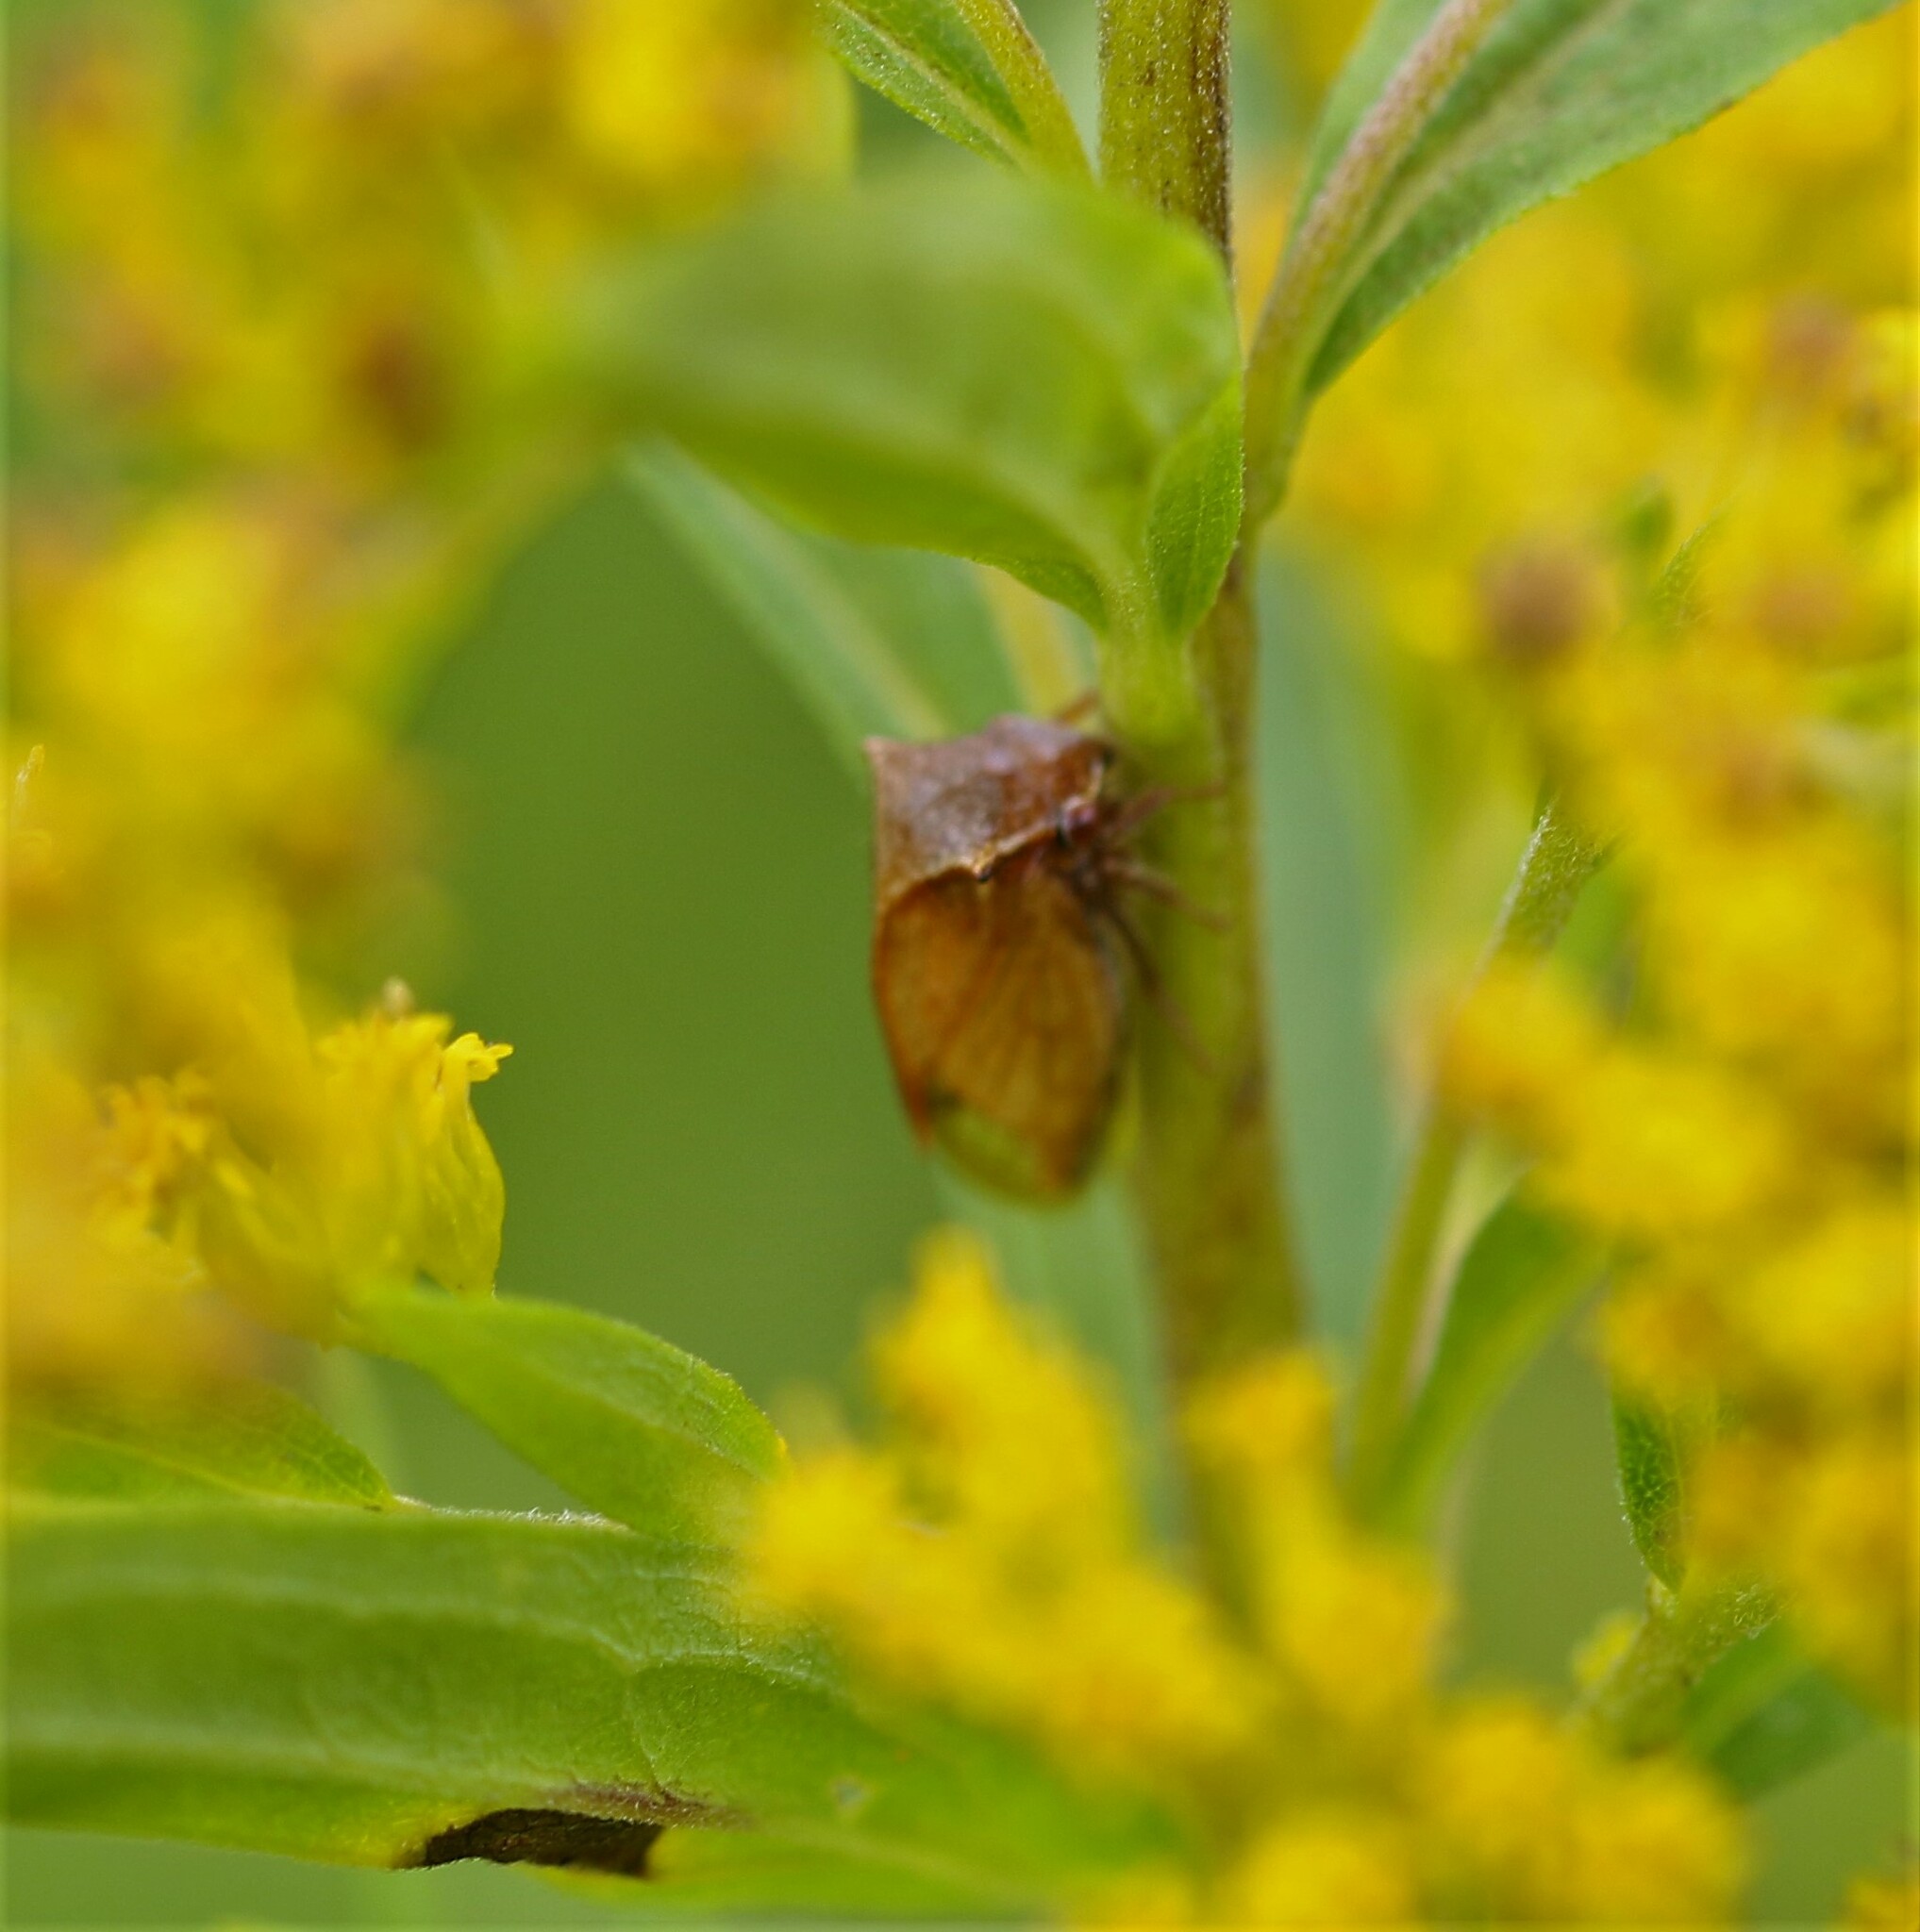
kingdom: Animalia
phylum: Arthropoda
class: Insecta
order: Hemiptera
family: Membracidae
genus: Stictocephala
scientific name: Stictocephala basalis
